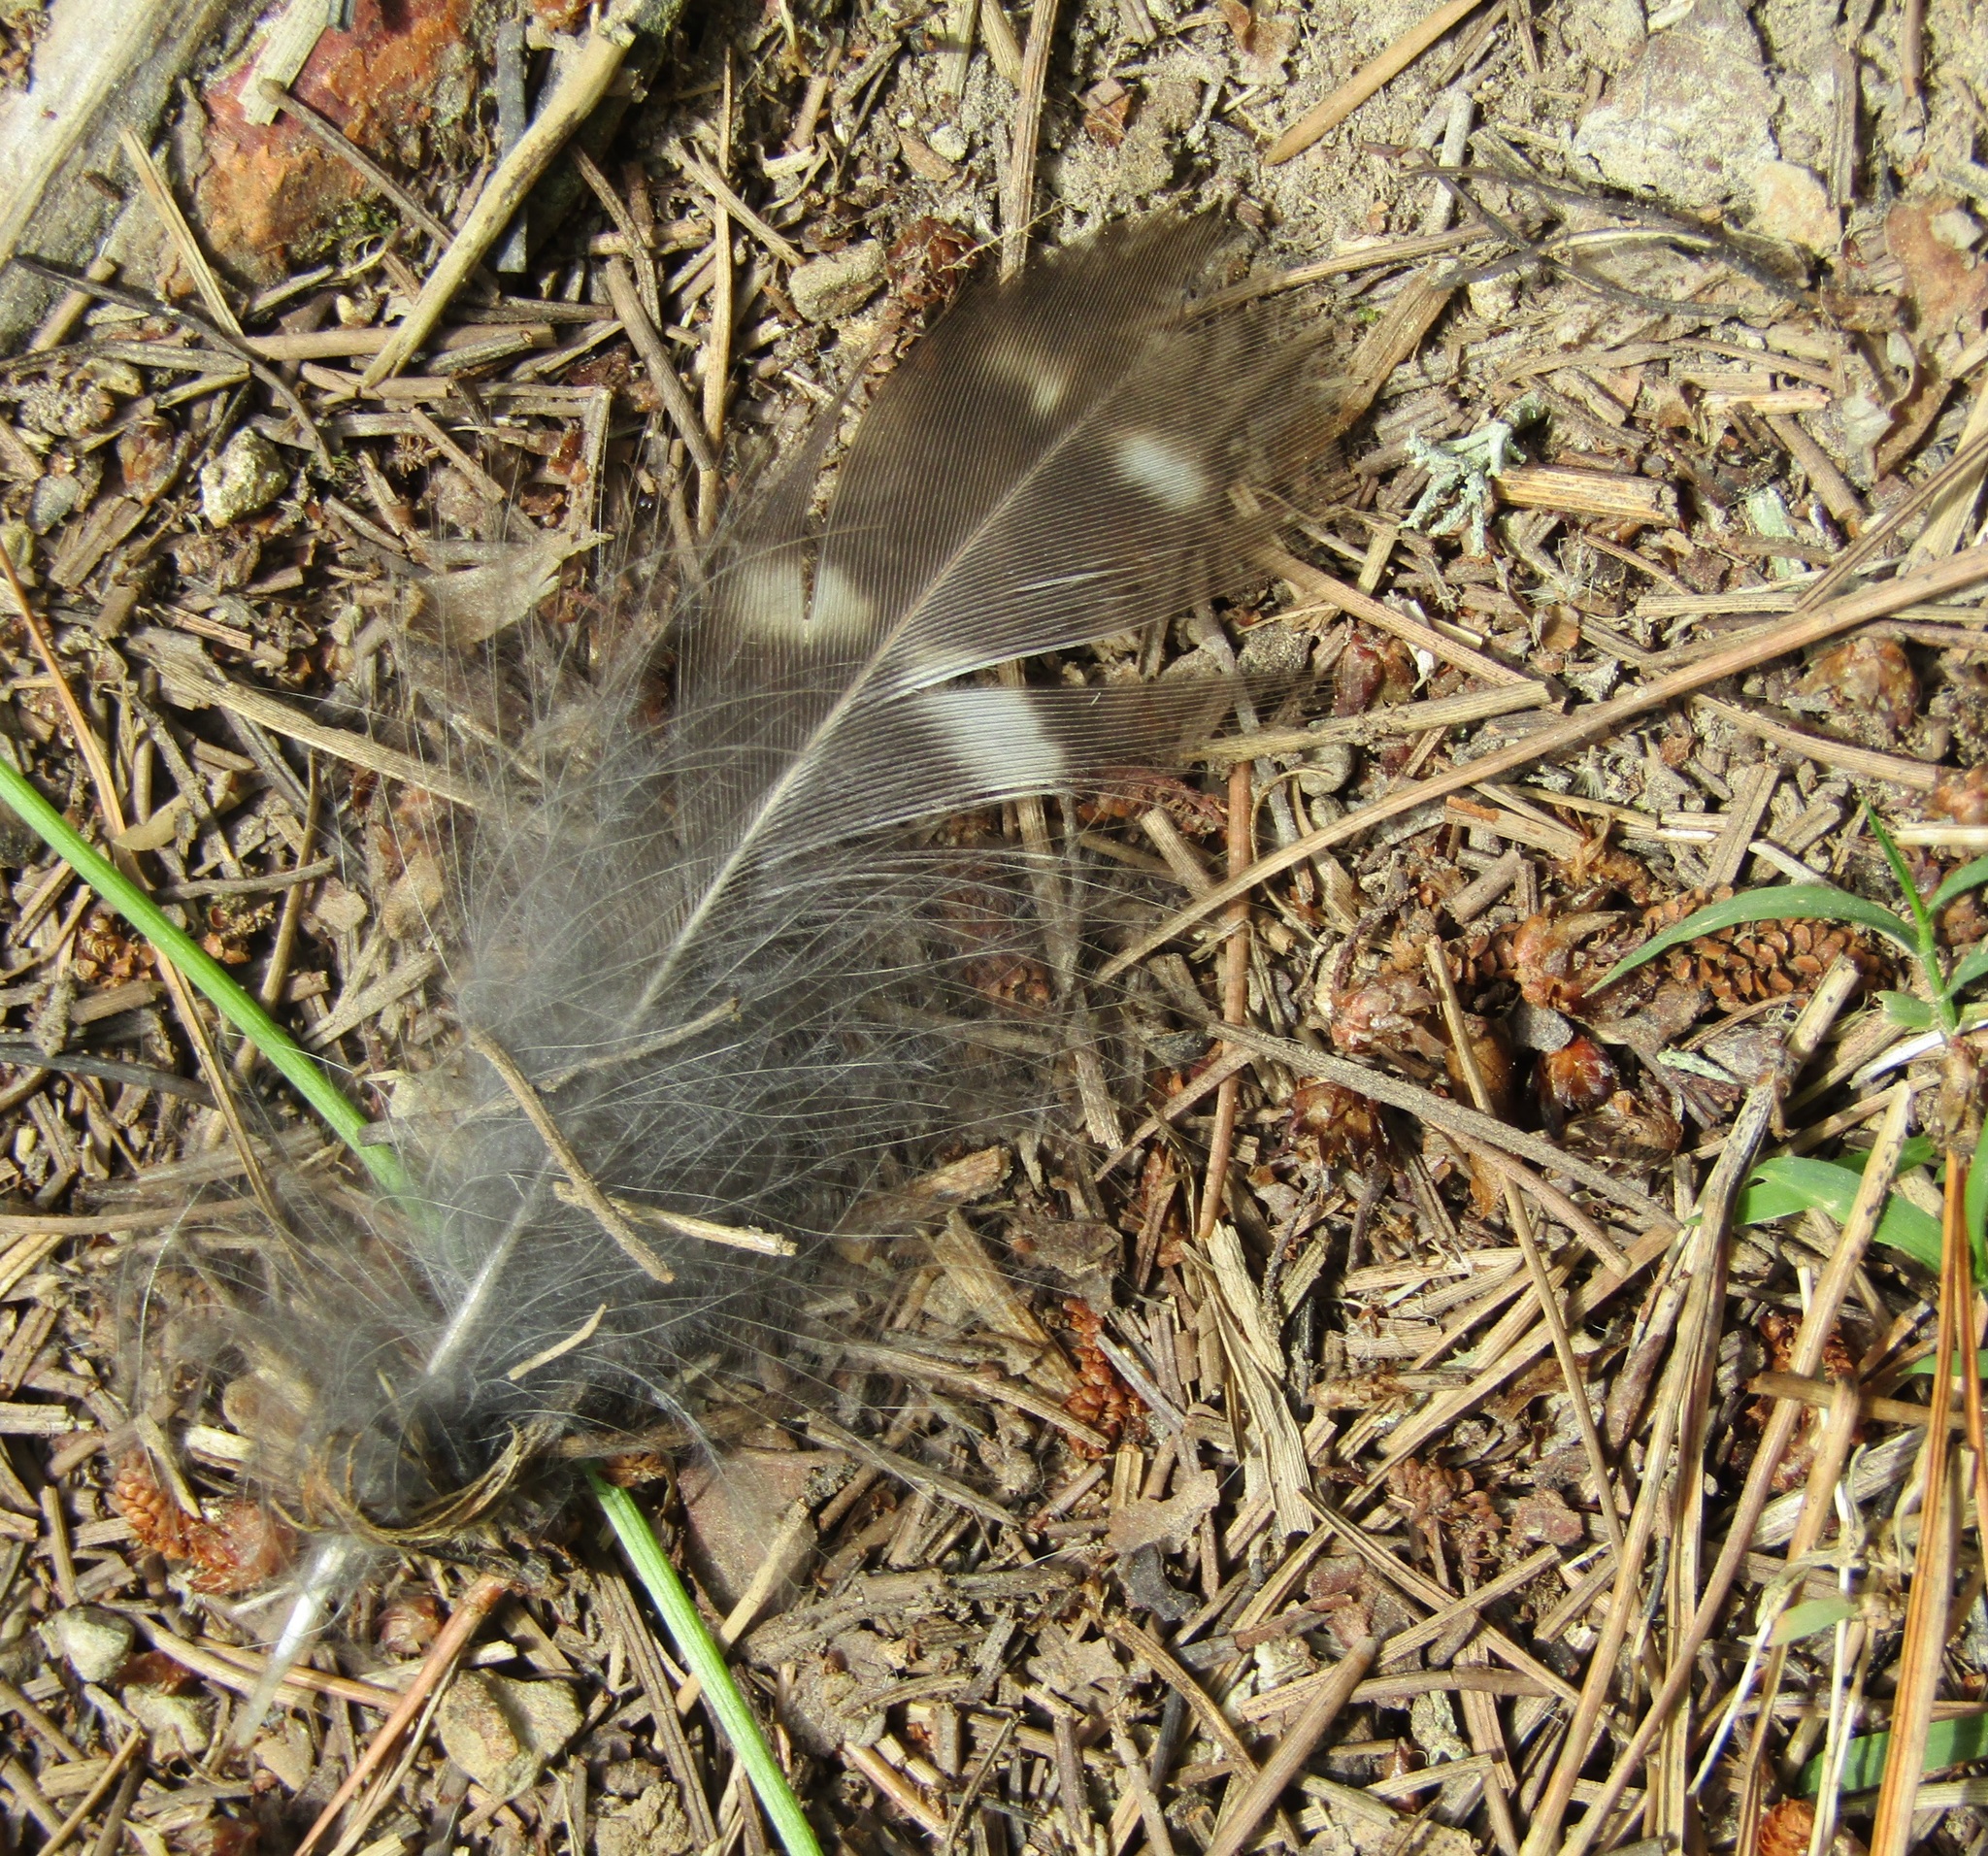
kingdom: Animalia
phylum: Chordata
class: Aves
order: Strigiformes
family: Strigidae
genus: Ninox
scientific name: Ninox novaeseelandiae
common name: Morepork
